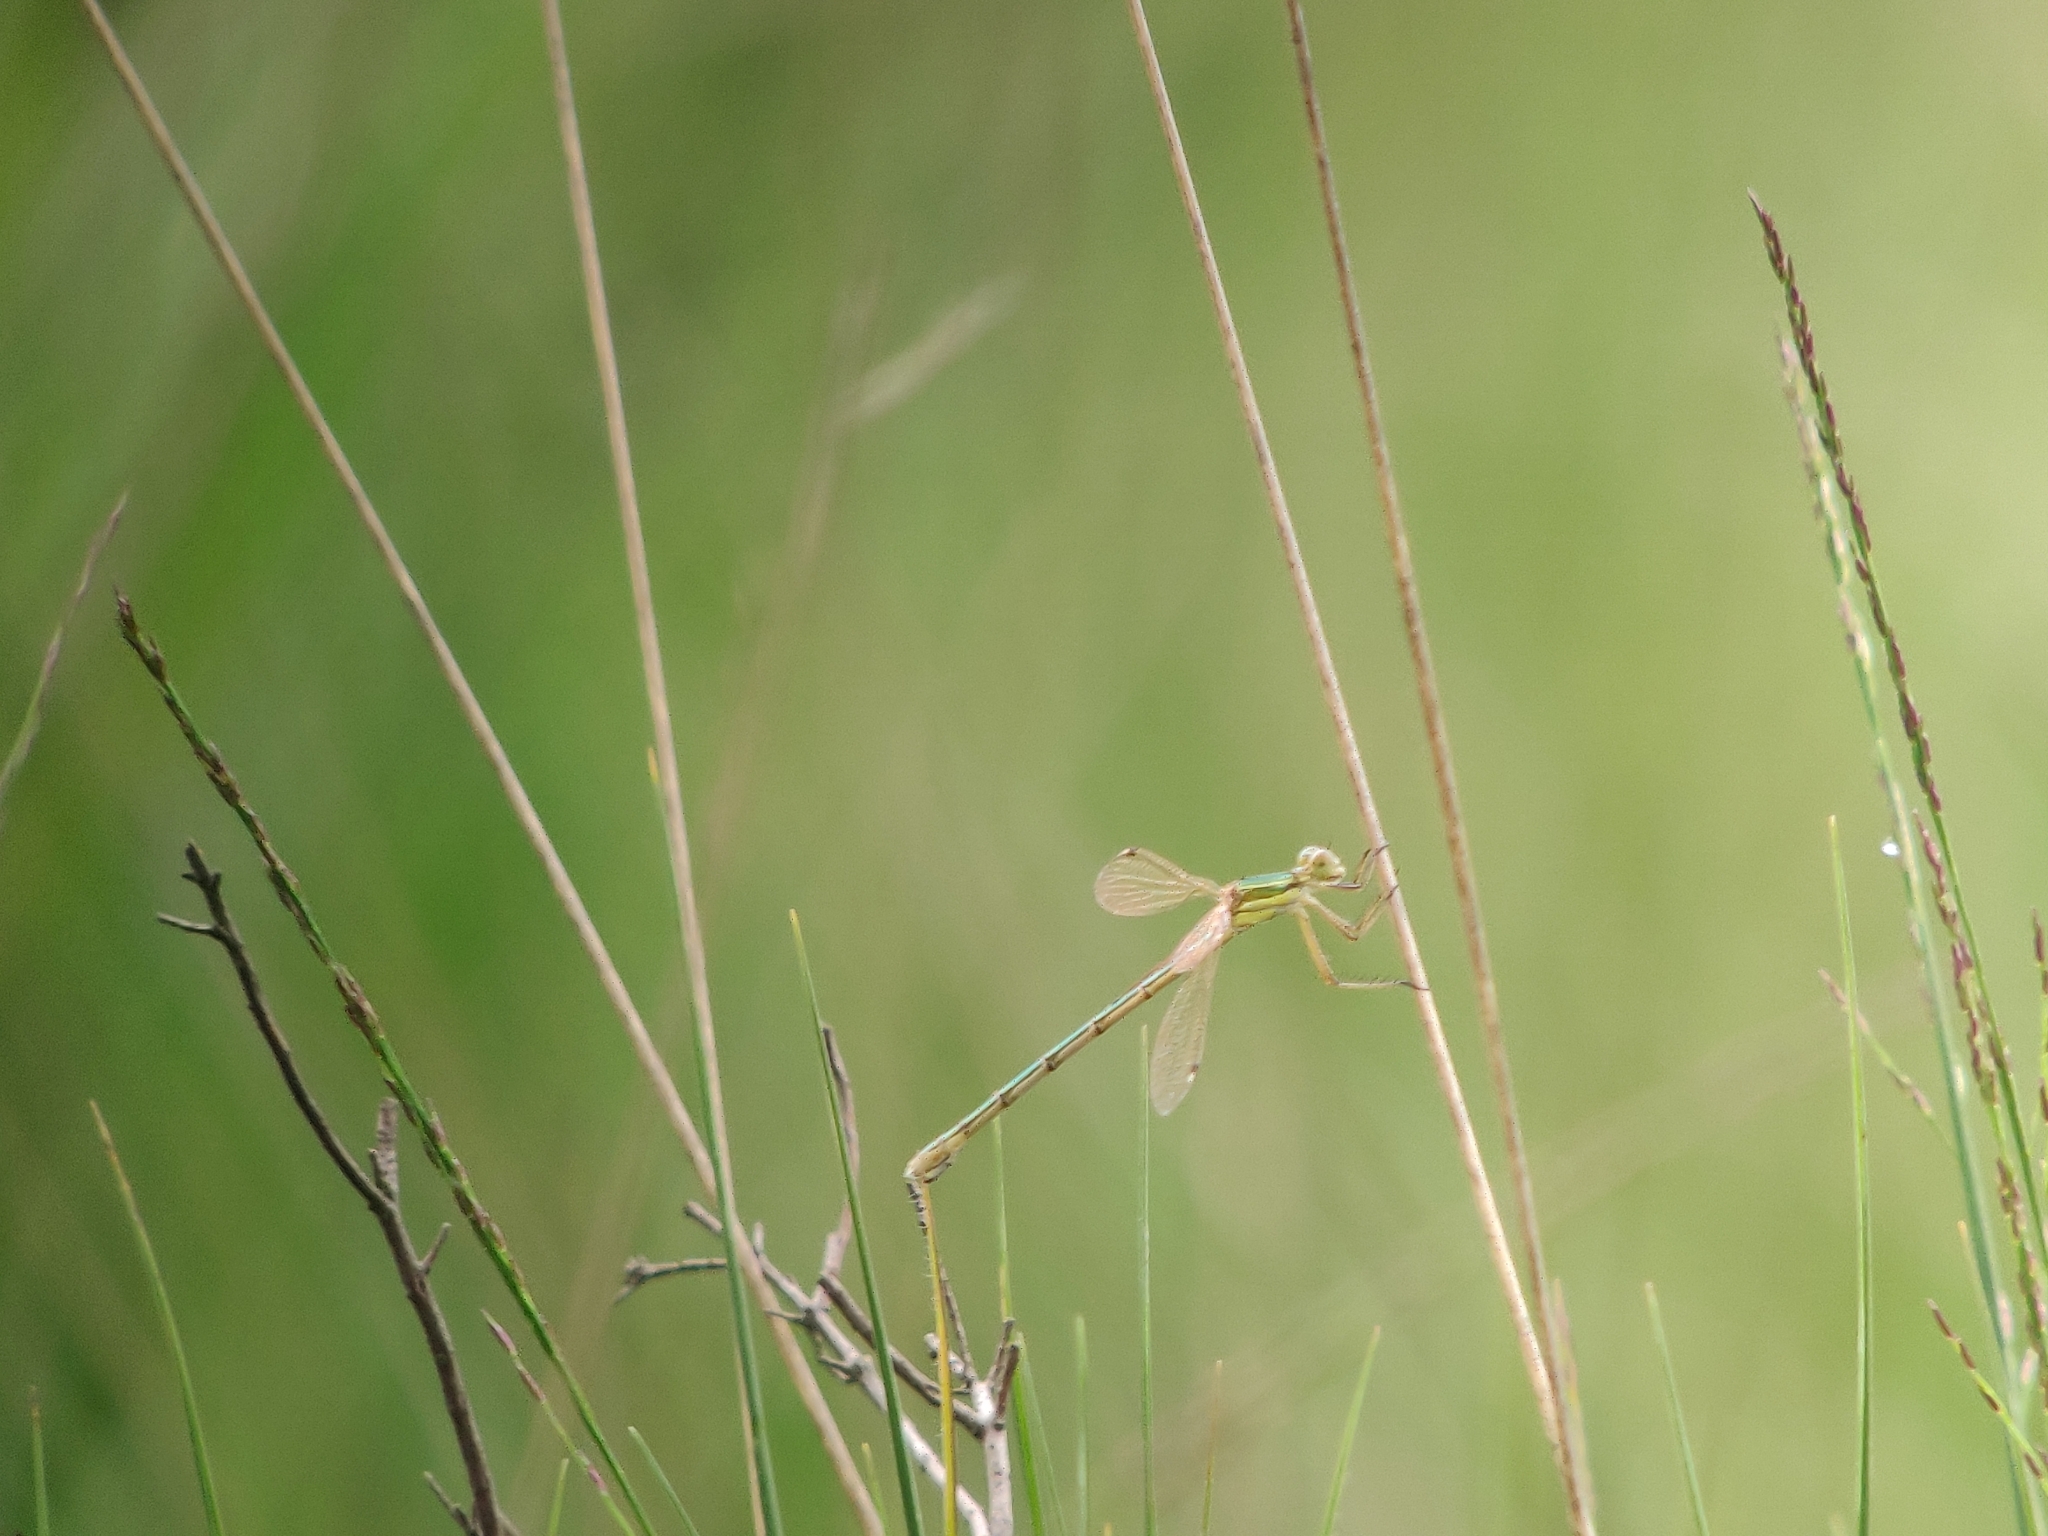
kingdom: Animalia
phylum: Arthropoda
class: Insecta
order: Odonata
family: Lestidae
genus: Lestes
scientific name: Lestes barbarus
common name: Migrant spreadwing
